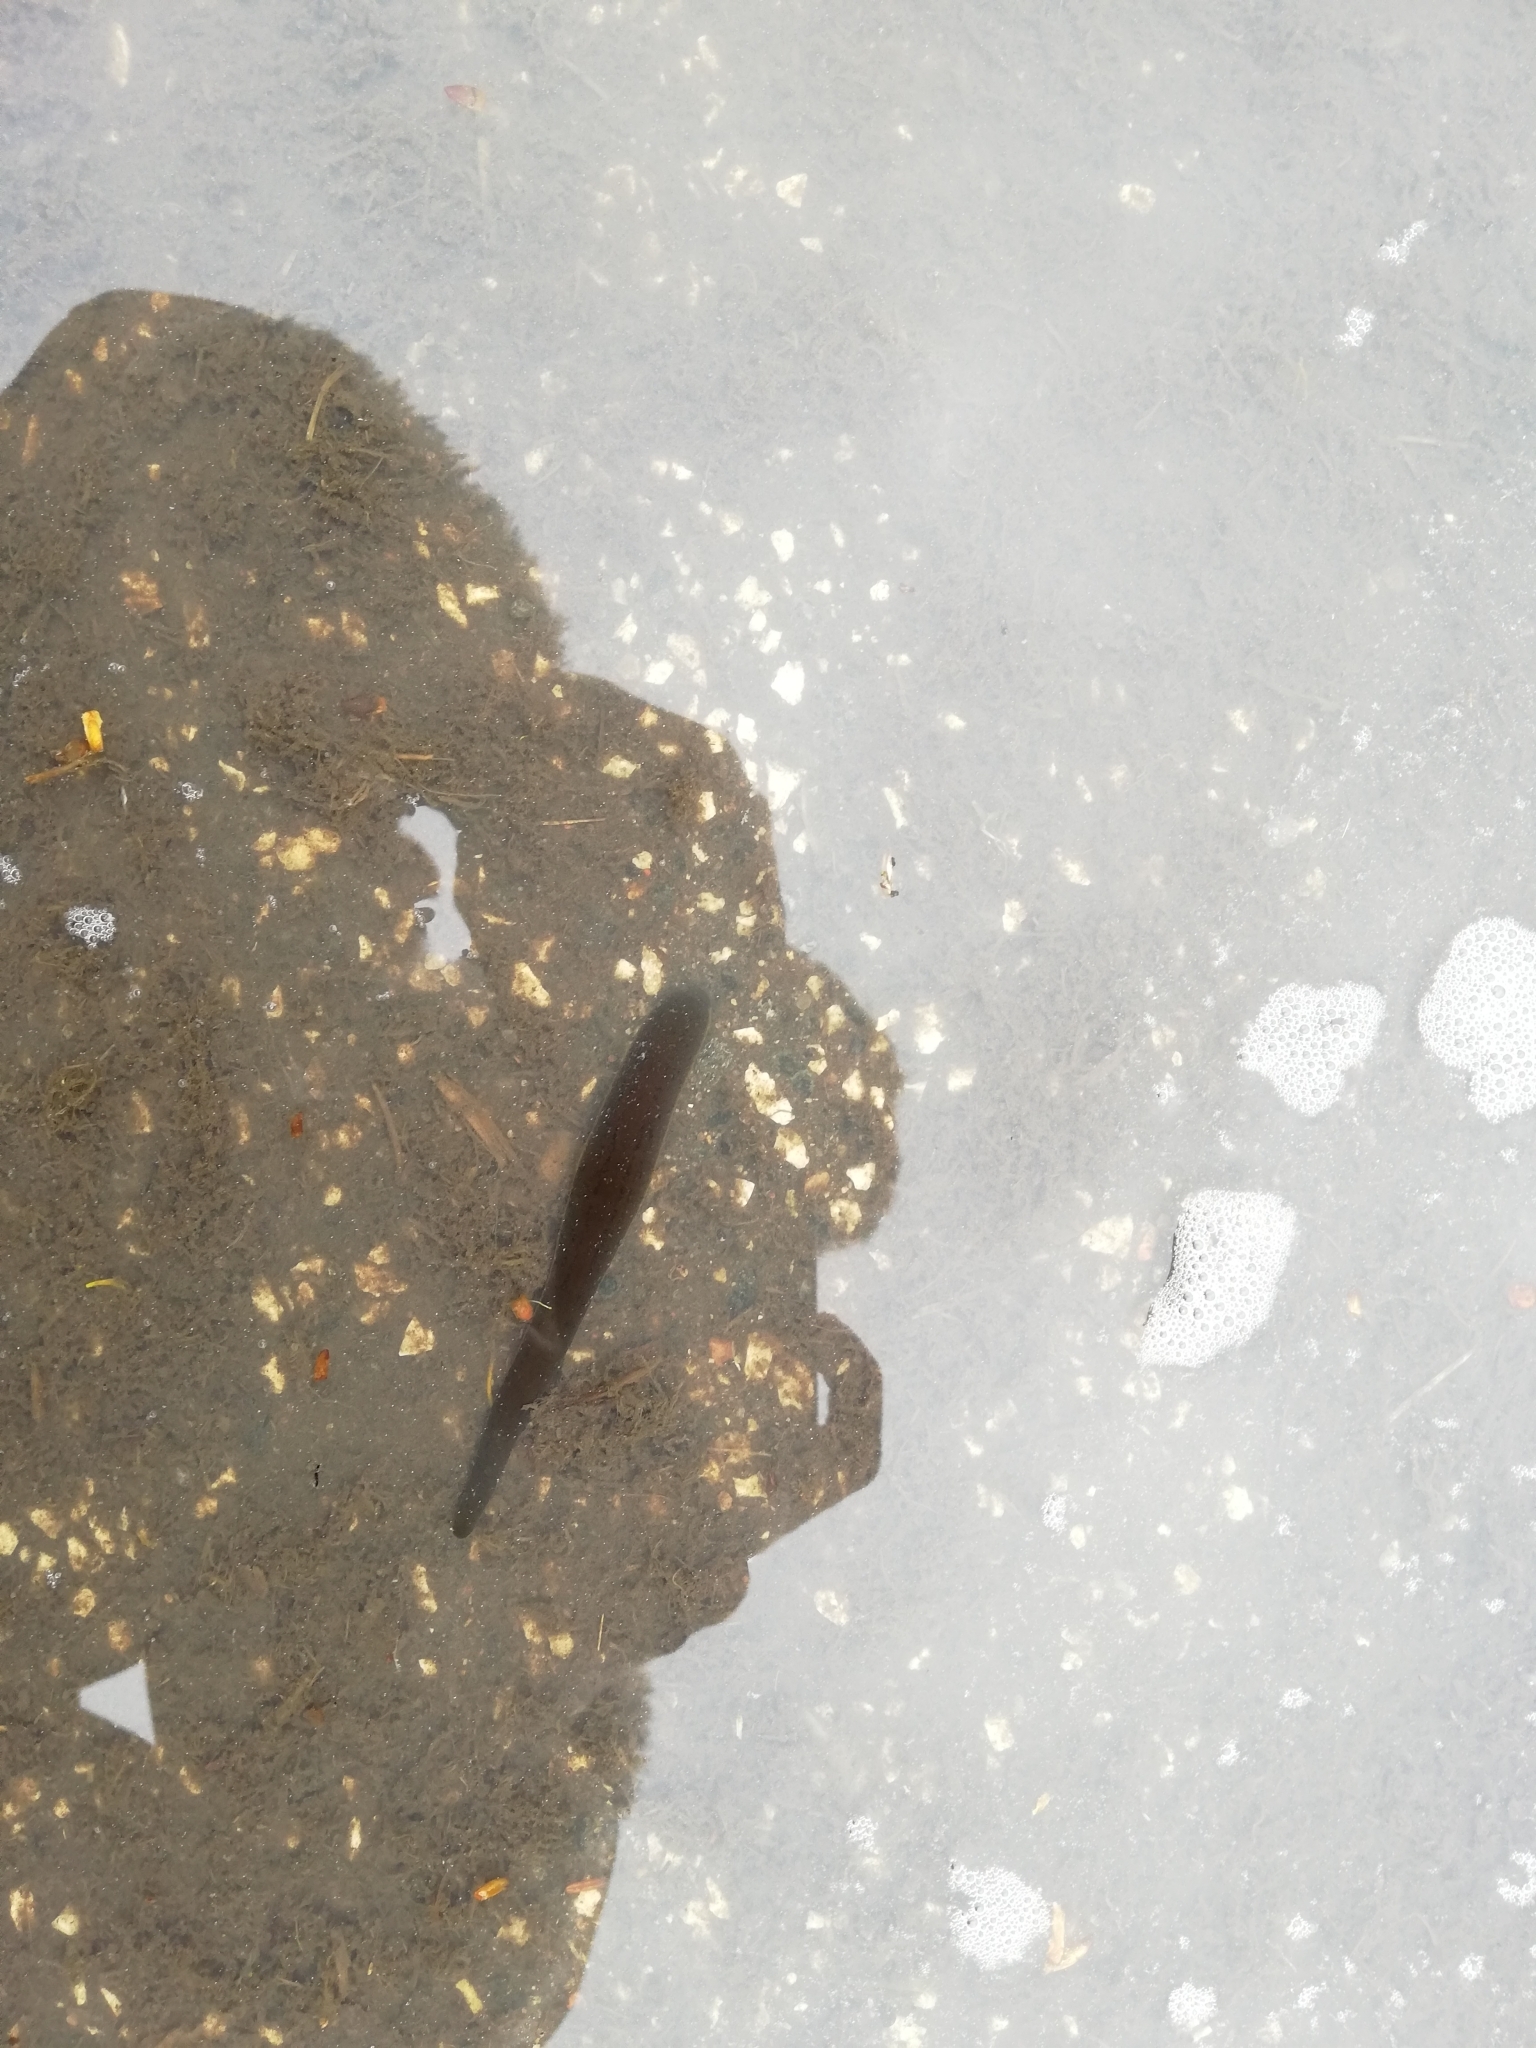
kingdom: Animalia
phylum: Annelida
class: Clitellata
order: Arhynchobdellida
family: Haemopidae
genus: Haemopis
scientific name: Haemopis sanguisuga
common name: Horse leech
